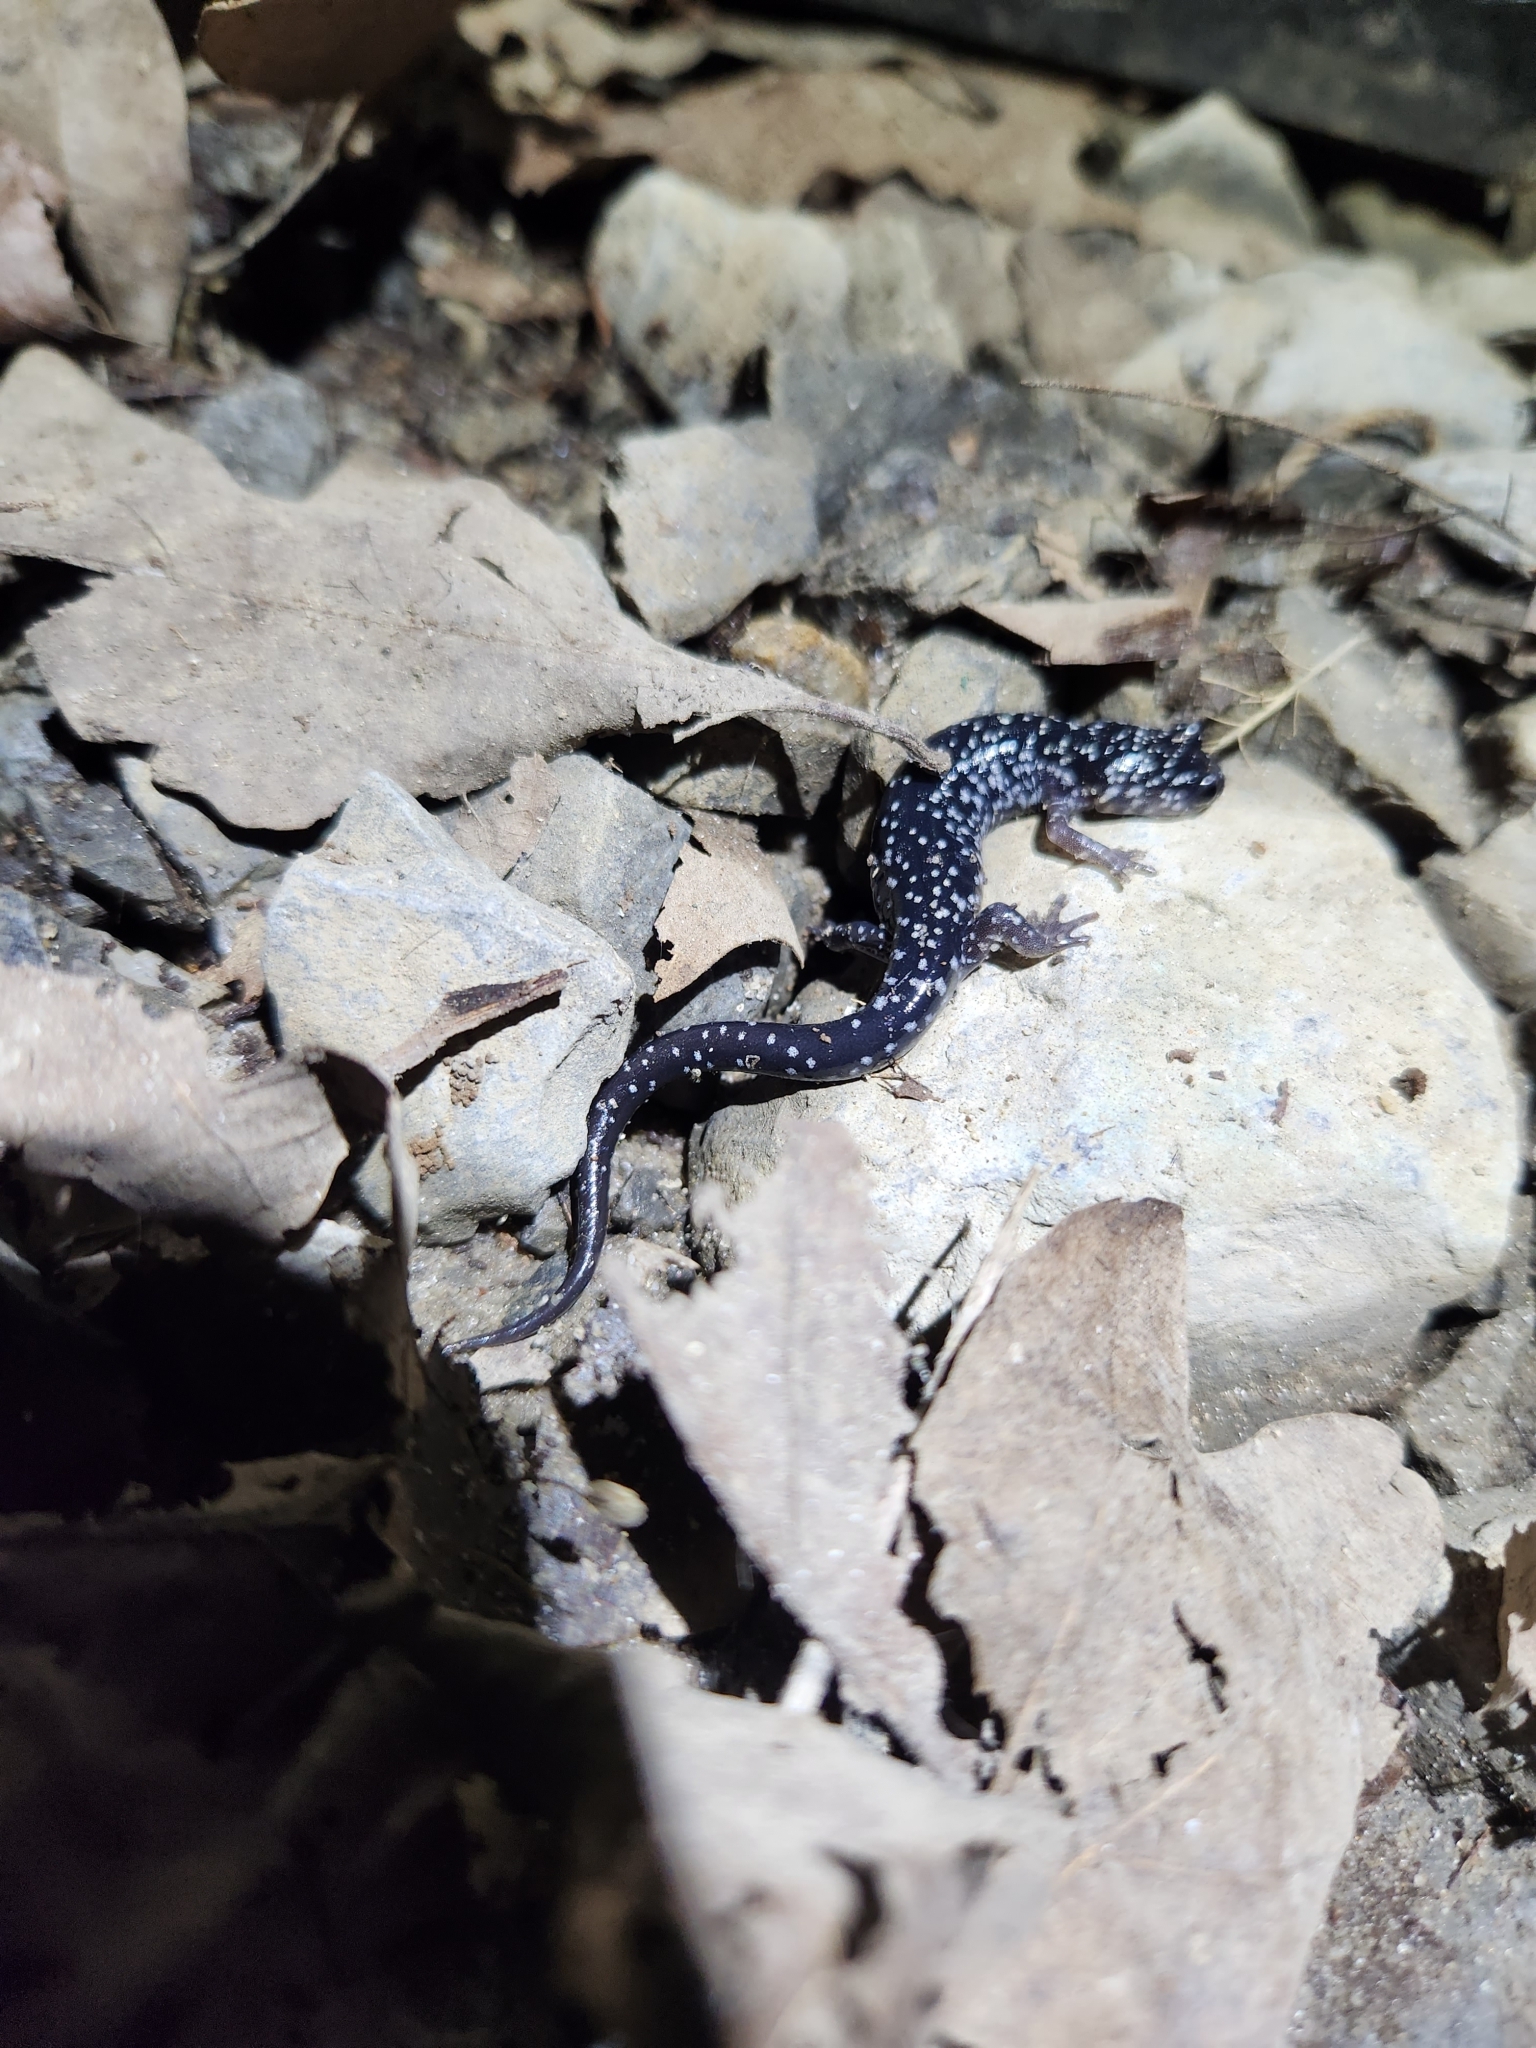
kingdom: Animalia
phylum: Chordata
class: Amphibia
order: Caudata
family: Plethodontidae
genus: Plethodon
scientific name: Plethodon glutinosus
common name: Northern slimy salamander
